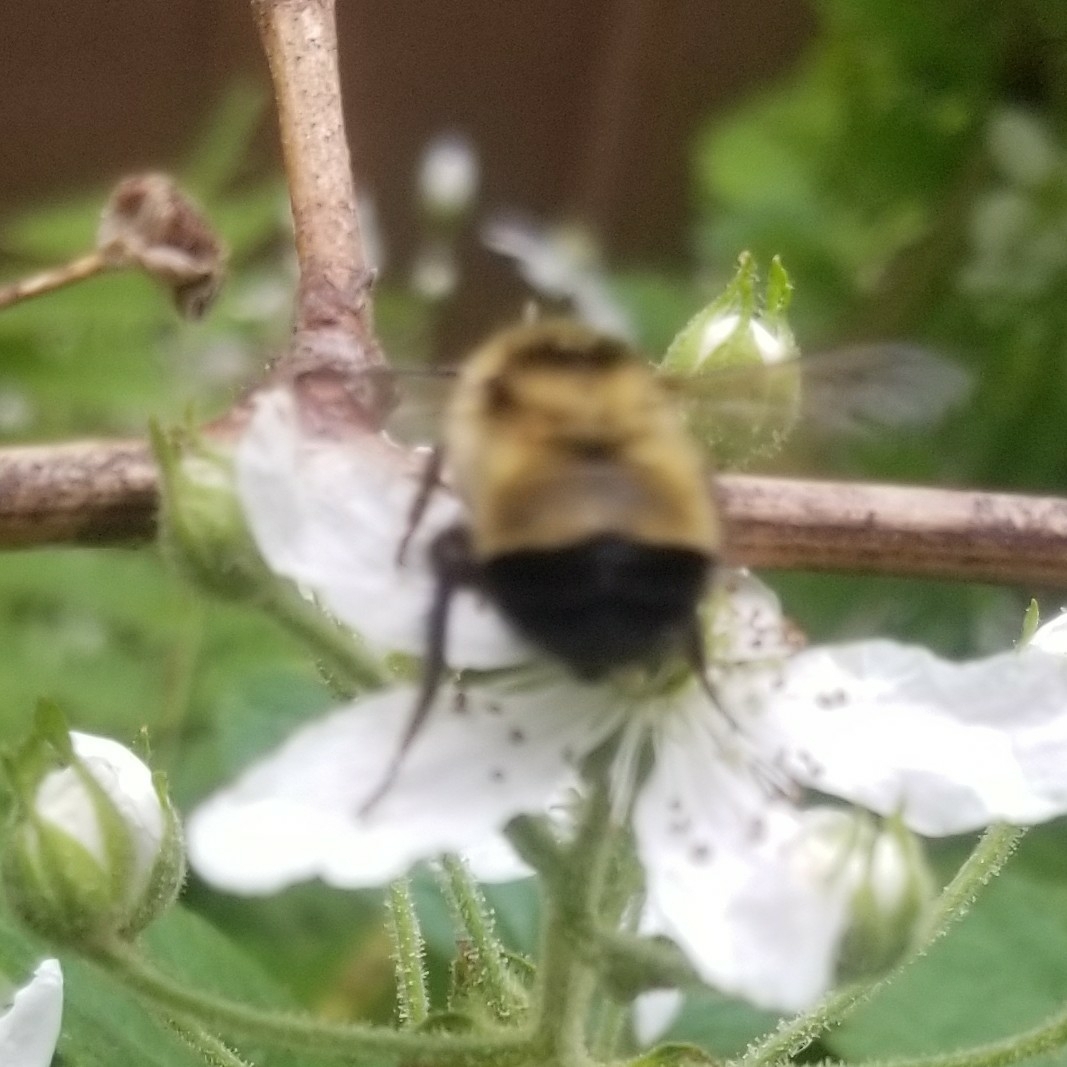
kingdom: Animalia
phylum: Arthropoda
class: Insecta
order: Hymenoptera
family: Apidae
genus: Pyrobombus
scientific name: Pyrobombus
